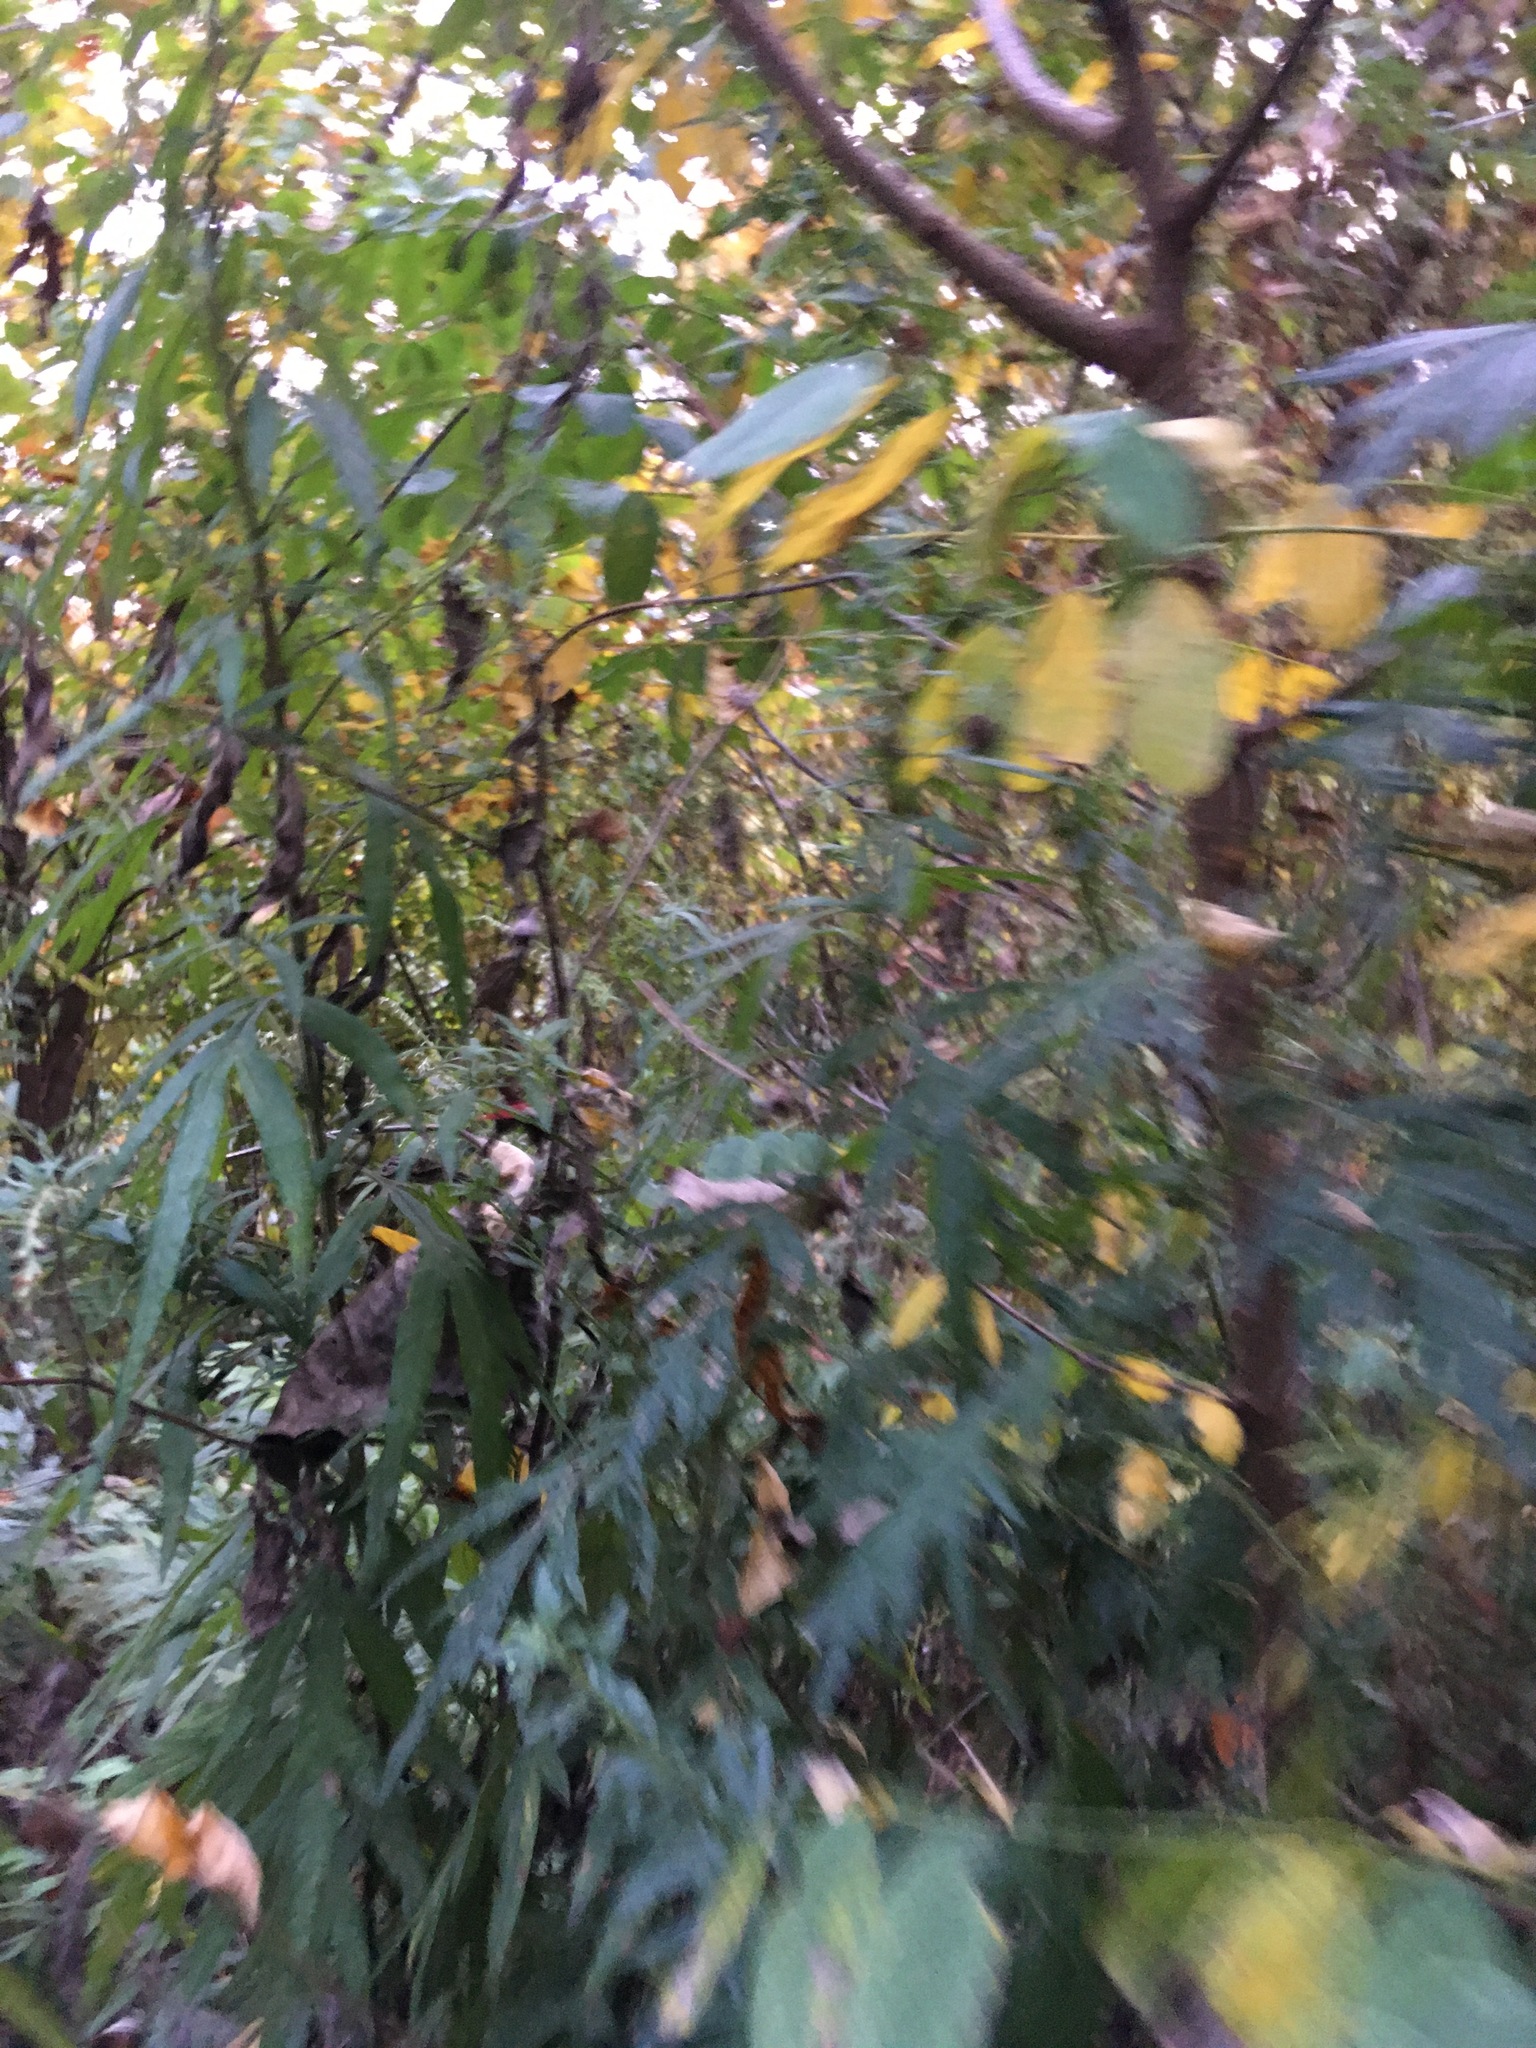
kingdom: Plantae
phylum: Tracheophyta
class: Magnoliopsida
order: Asterales
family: Asteraceae
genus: Artemisia
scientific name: Artemisia vulgaris
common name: Mugwort
